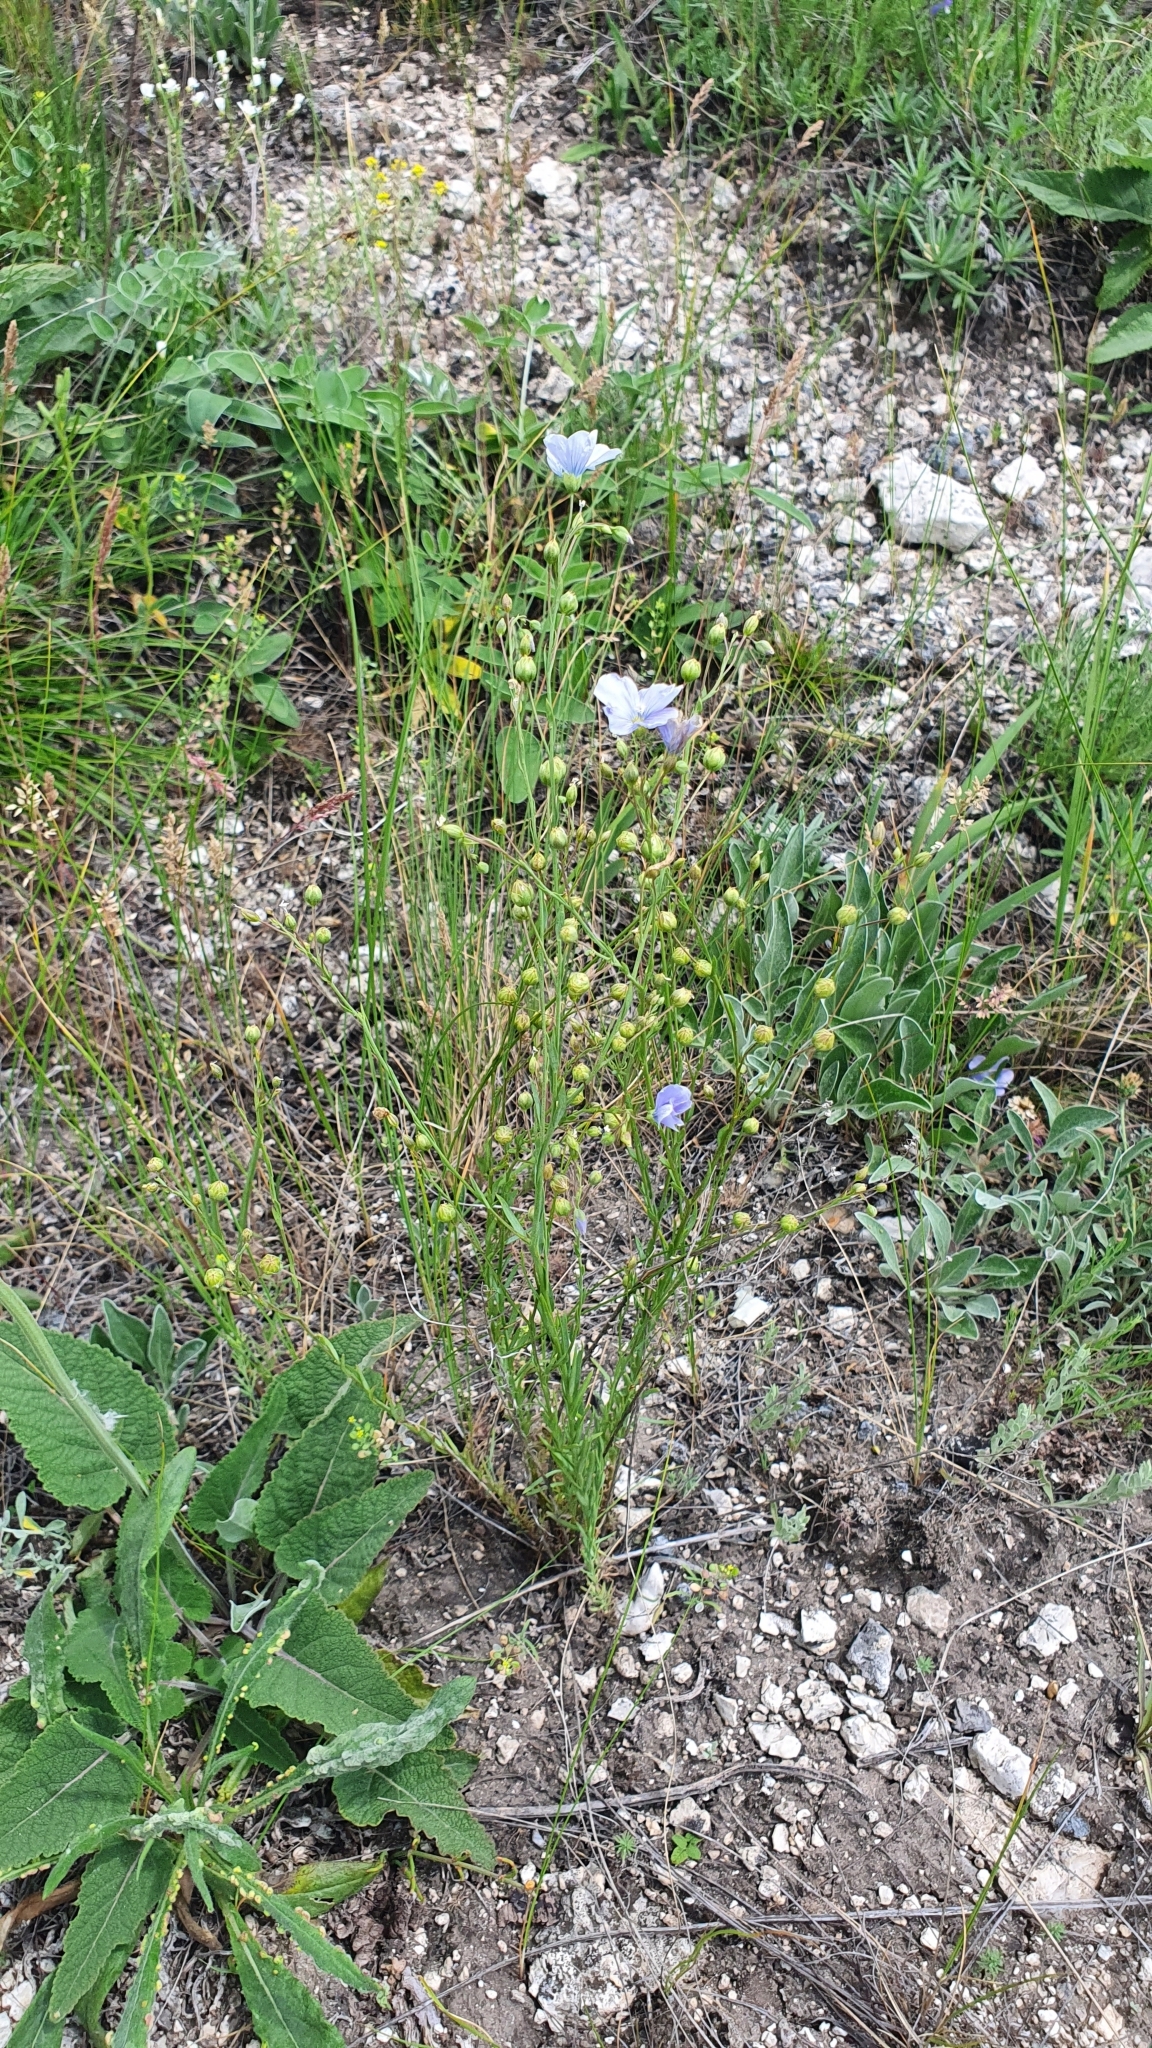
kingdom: Plantae
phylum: Tracheophyta
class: Magnoliopsida
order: Malpighiales
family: Linaceae
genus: Linum
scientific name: Linum perenne
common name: Blue flax
